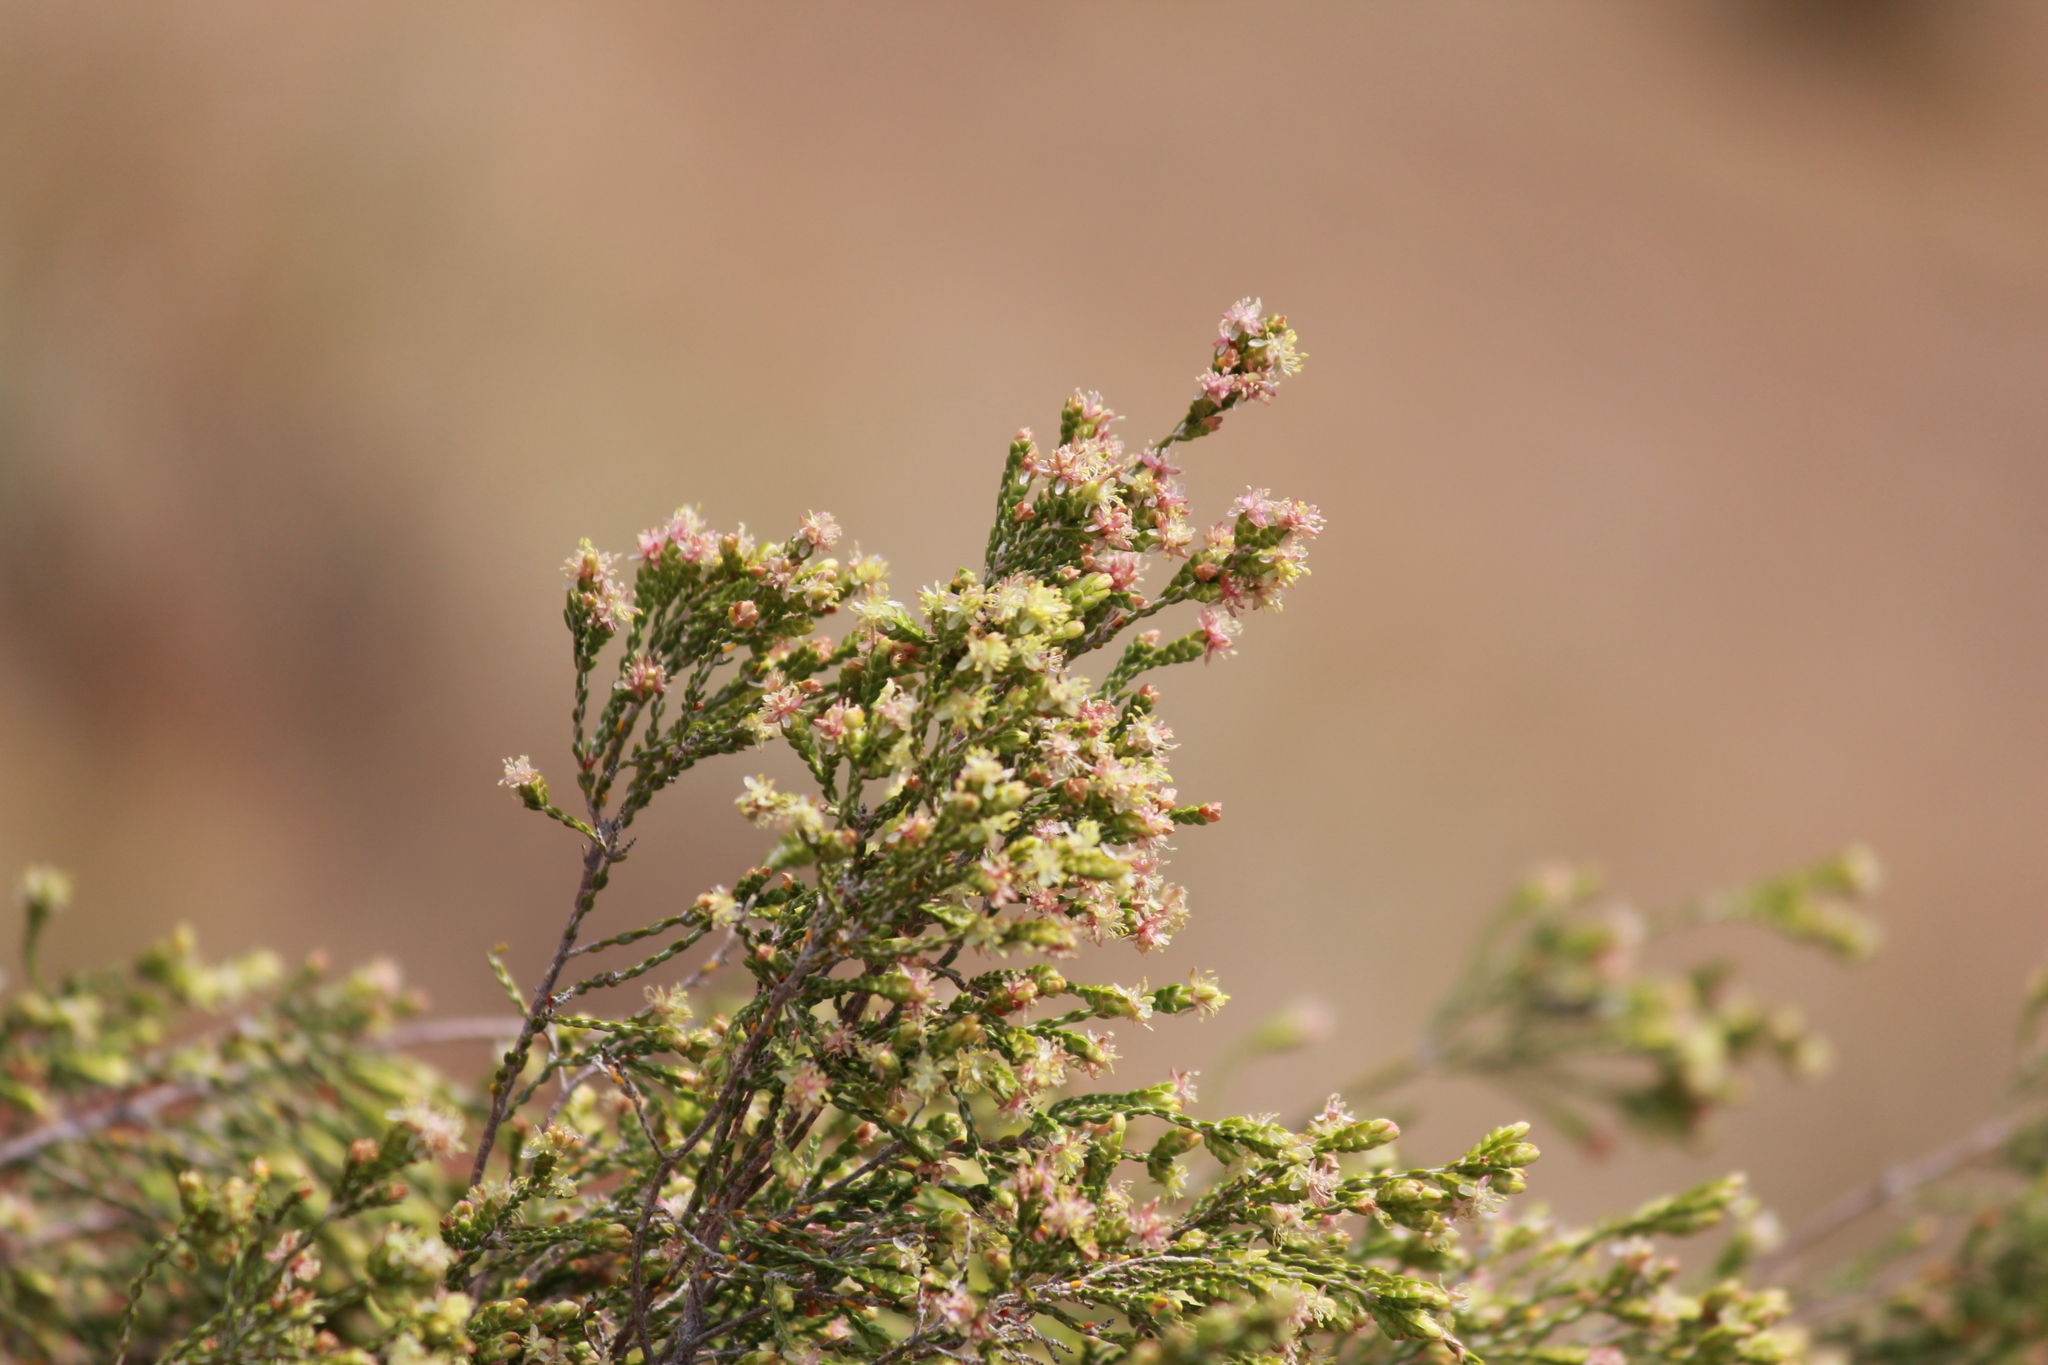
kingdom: Plantae
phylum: Tracheophyta
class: Magnoliopsida
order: Malvales
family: Thymelaeaceae
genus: Passerina
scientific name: Passerina montana
